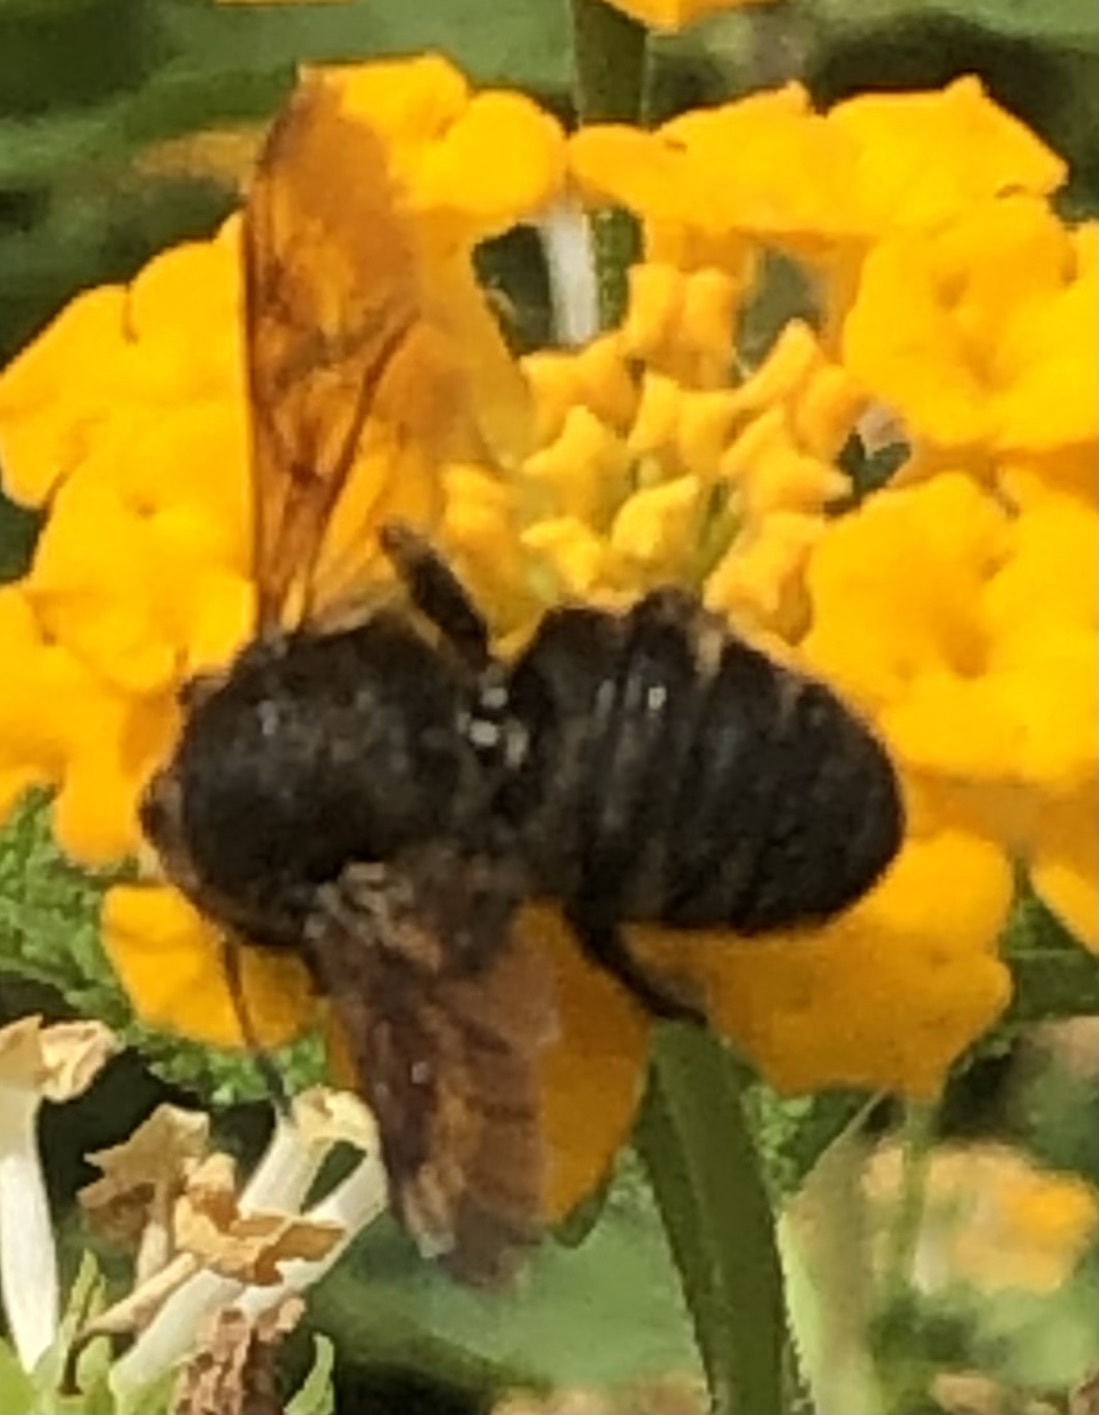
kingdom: Animalia
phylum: Arthropoda
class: Insecta
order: Hymenoptera
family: Megachilidae
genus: Megachile
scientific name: Megachile parietina
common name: Black mud bee
